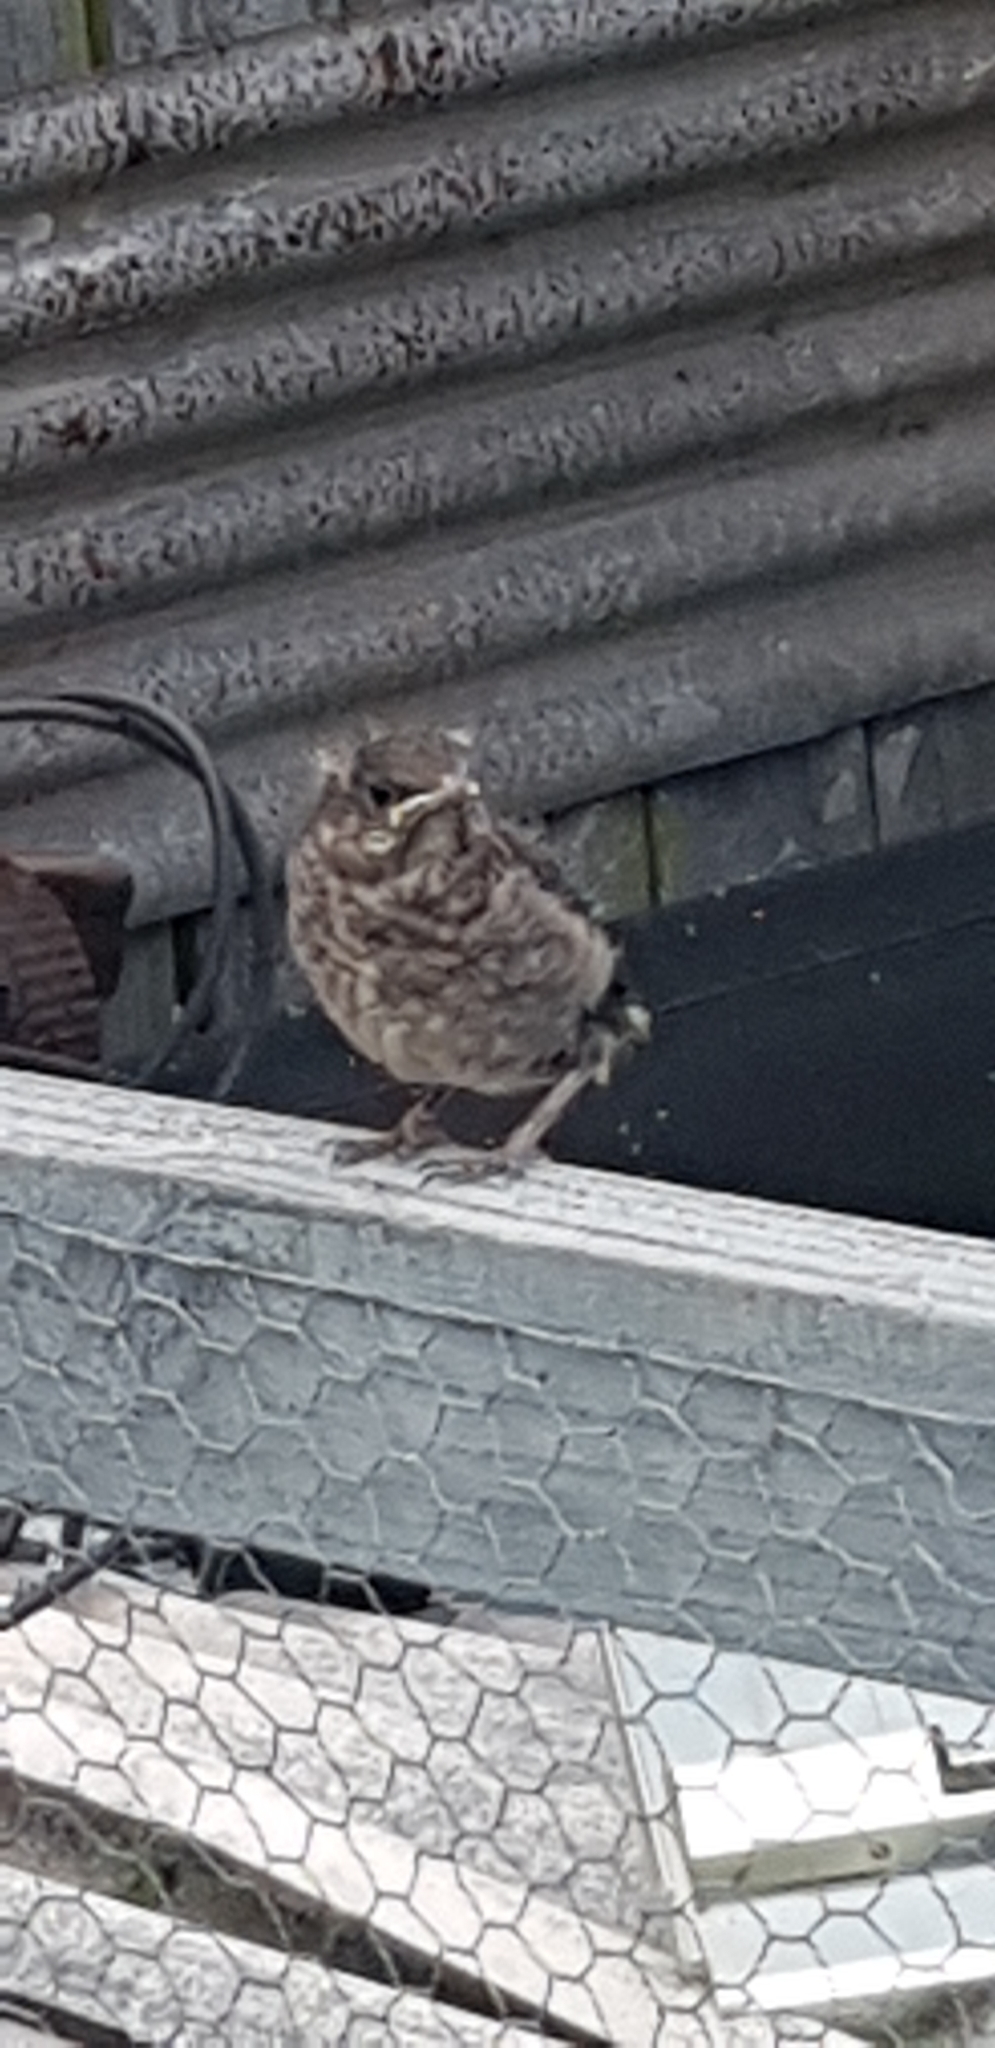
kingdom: Animalia
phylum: Chordata
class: Aves
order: Passeriformes
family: Turdidae
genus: Turdus
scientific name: Turdus merula
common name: Common blackbird
